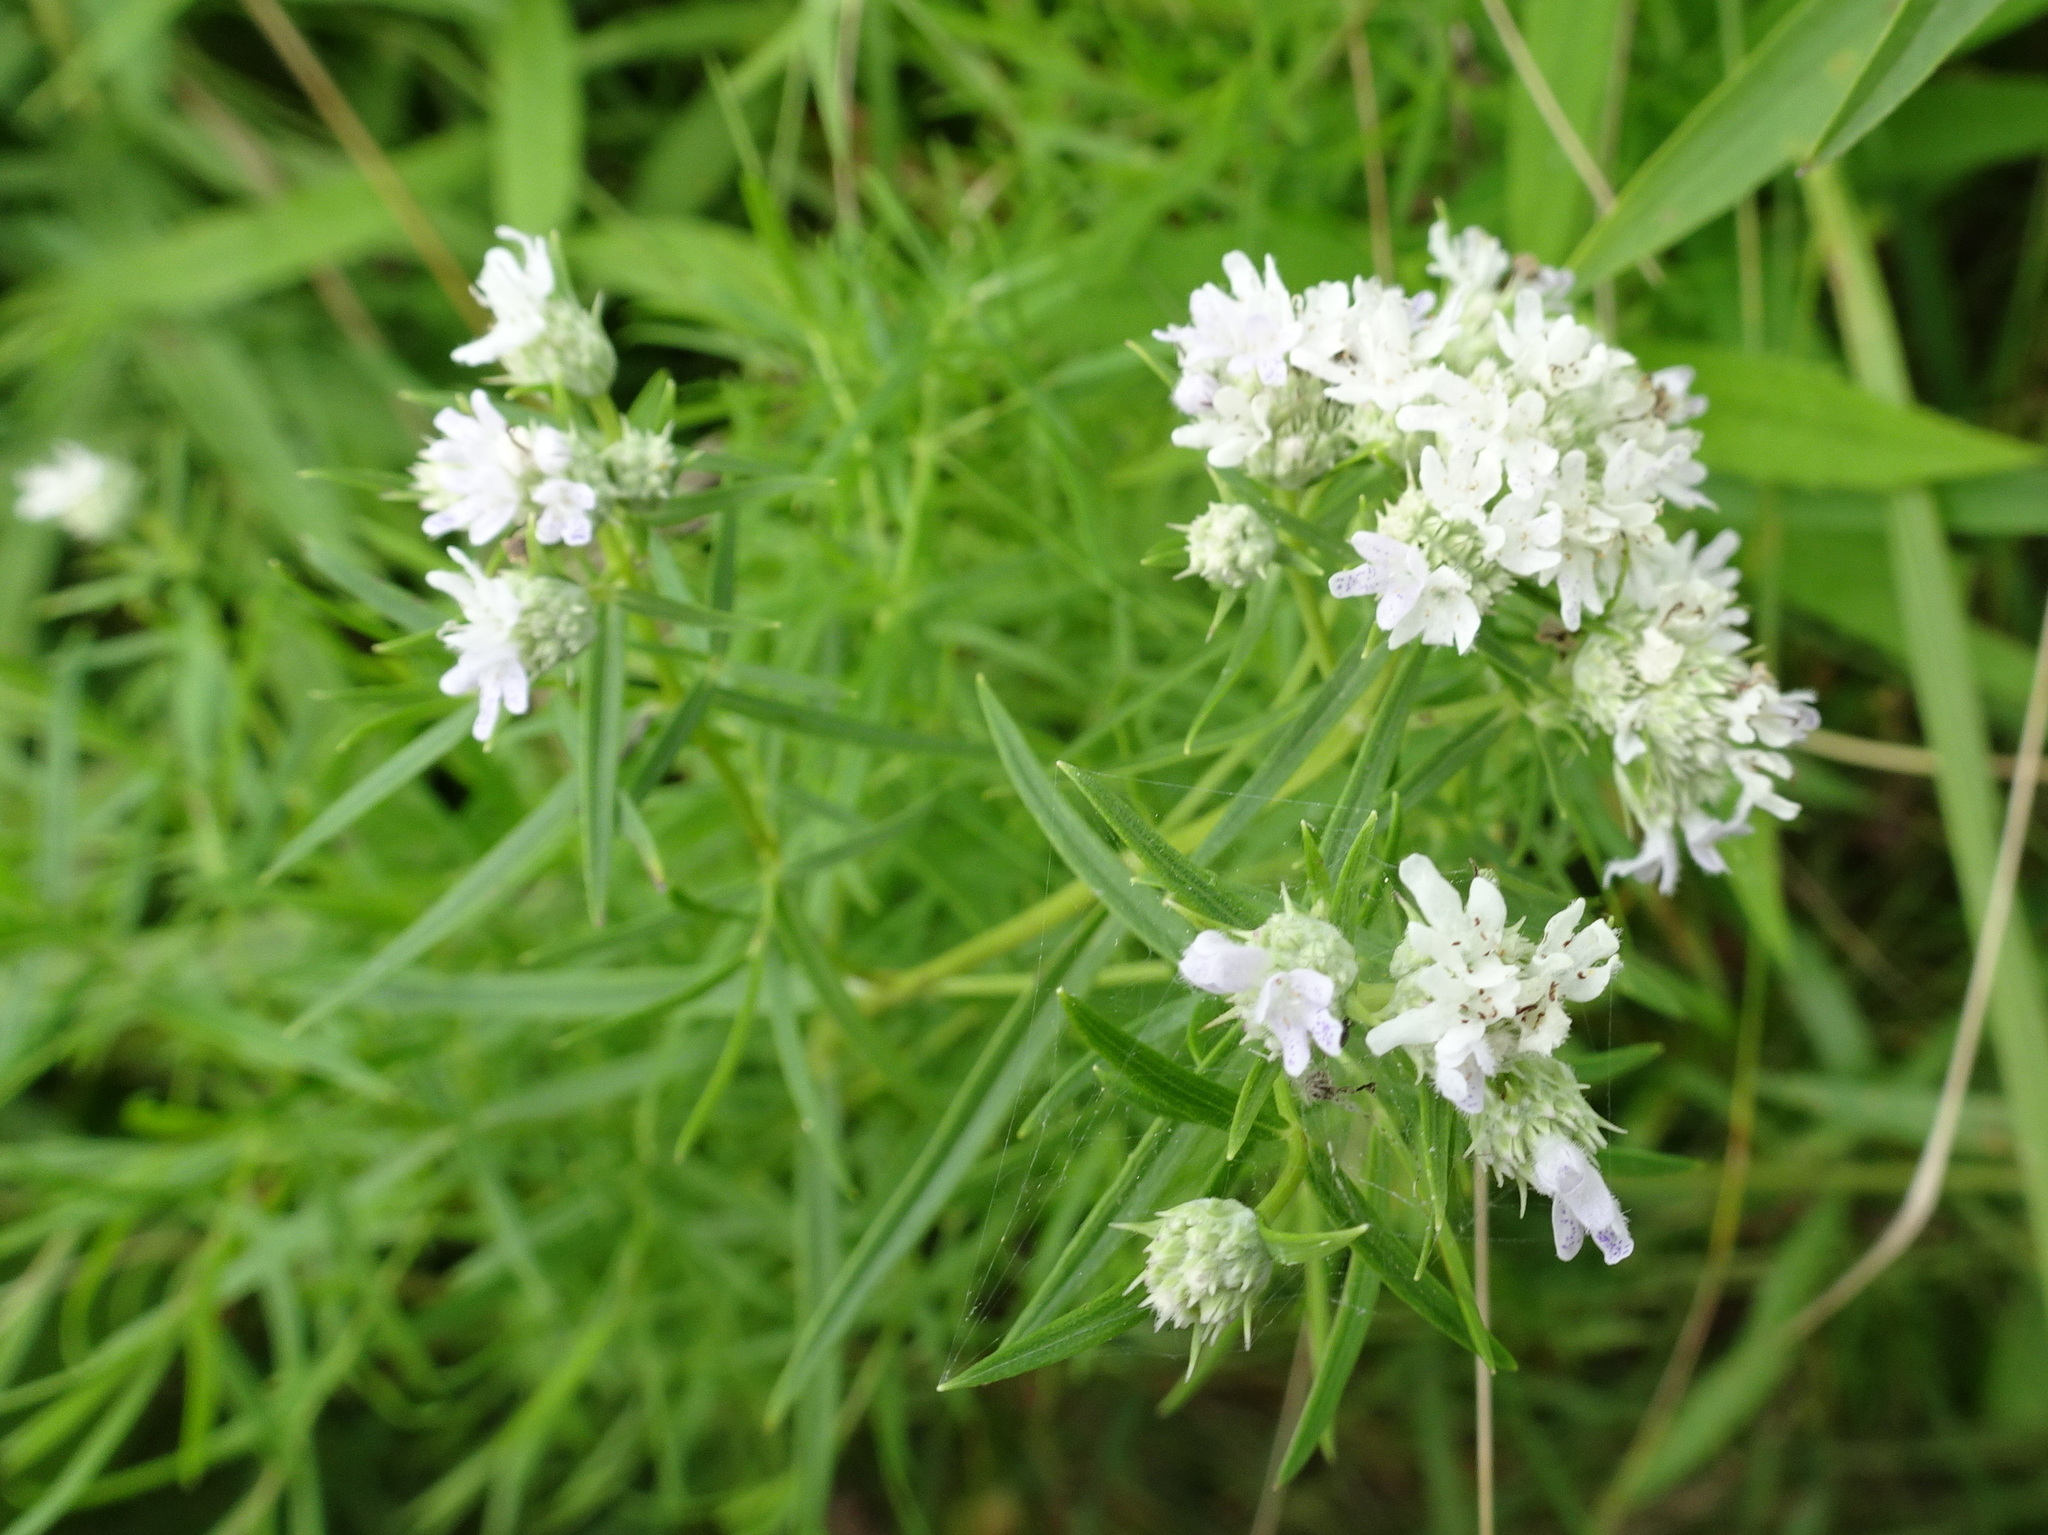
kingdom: Plantae
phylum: Tracheophyta
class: Magnoliopsida
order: Lamiales
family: Lamiaceae
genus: Pycnanthemum
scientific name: Pycnanthemum tenuifolium
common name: Narrow-leaf mountain-mint
